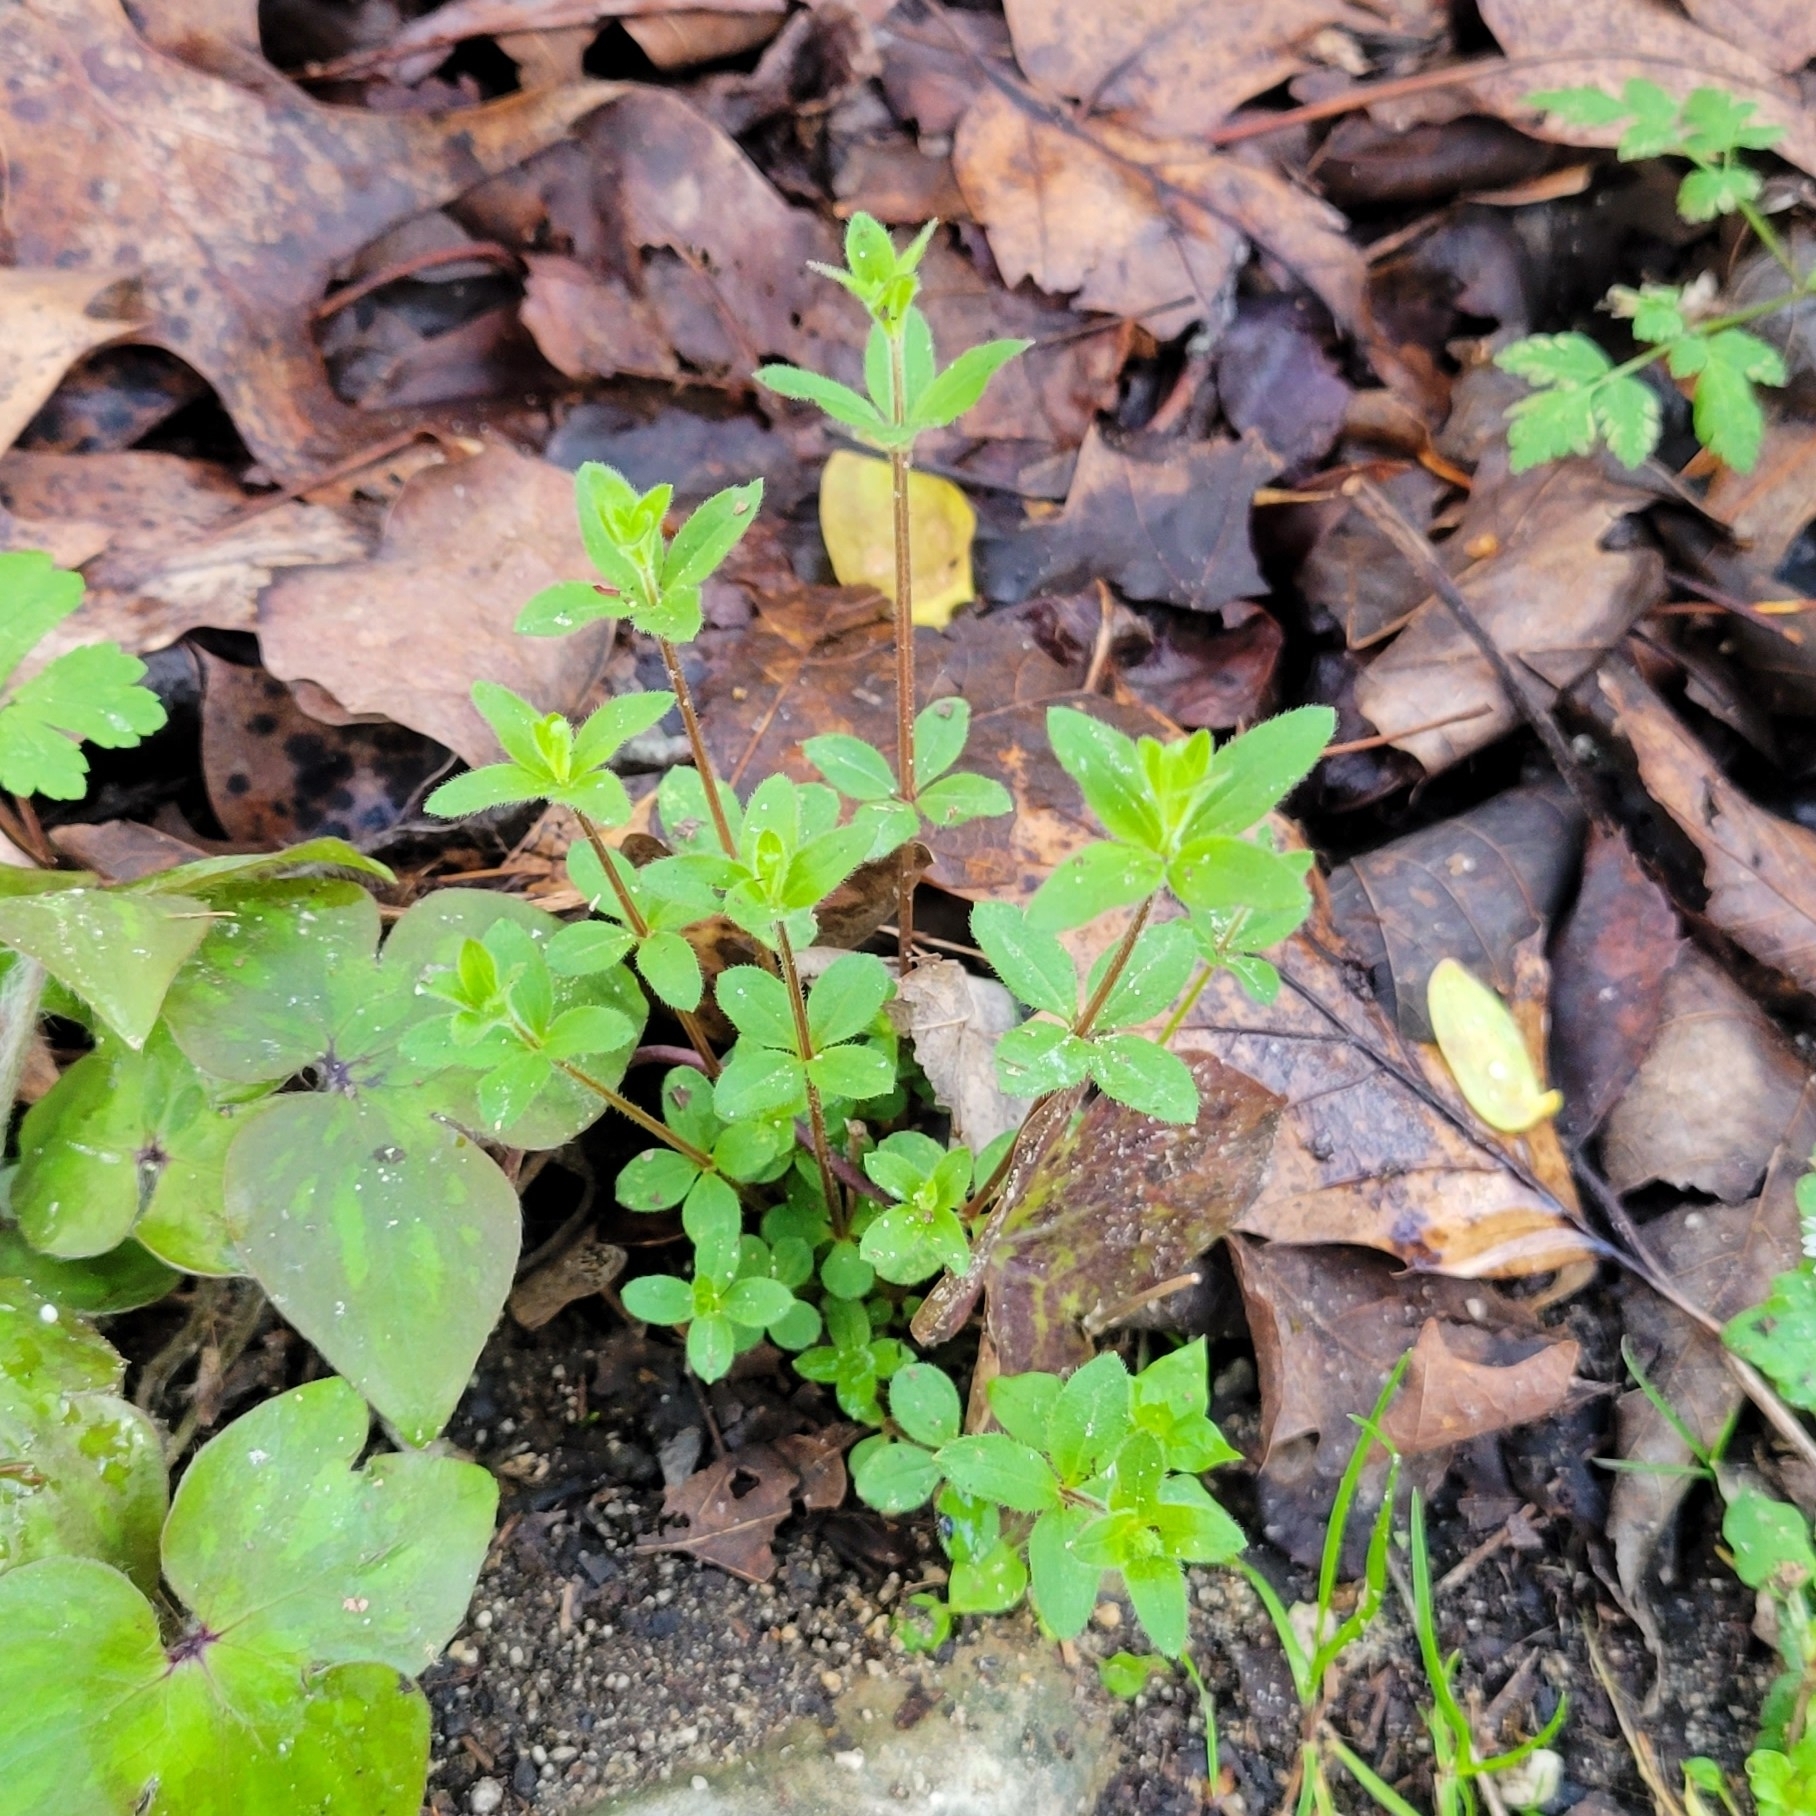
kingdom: Plantae
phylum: Tracheophyta
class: Magnoliopsida
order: Gentianales
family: Rubiaceae
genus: Galium
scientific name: Galium pilosum
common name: Hairy bedstraw
